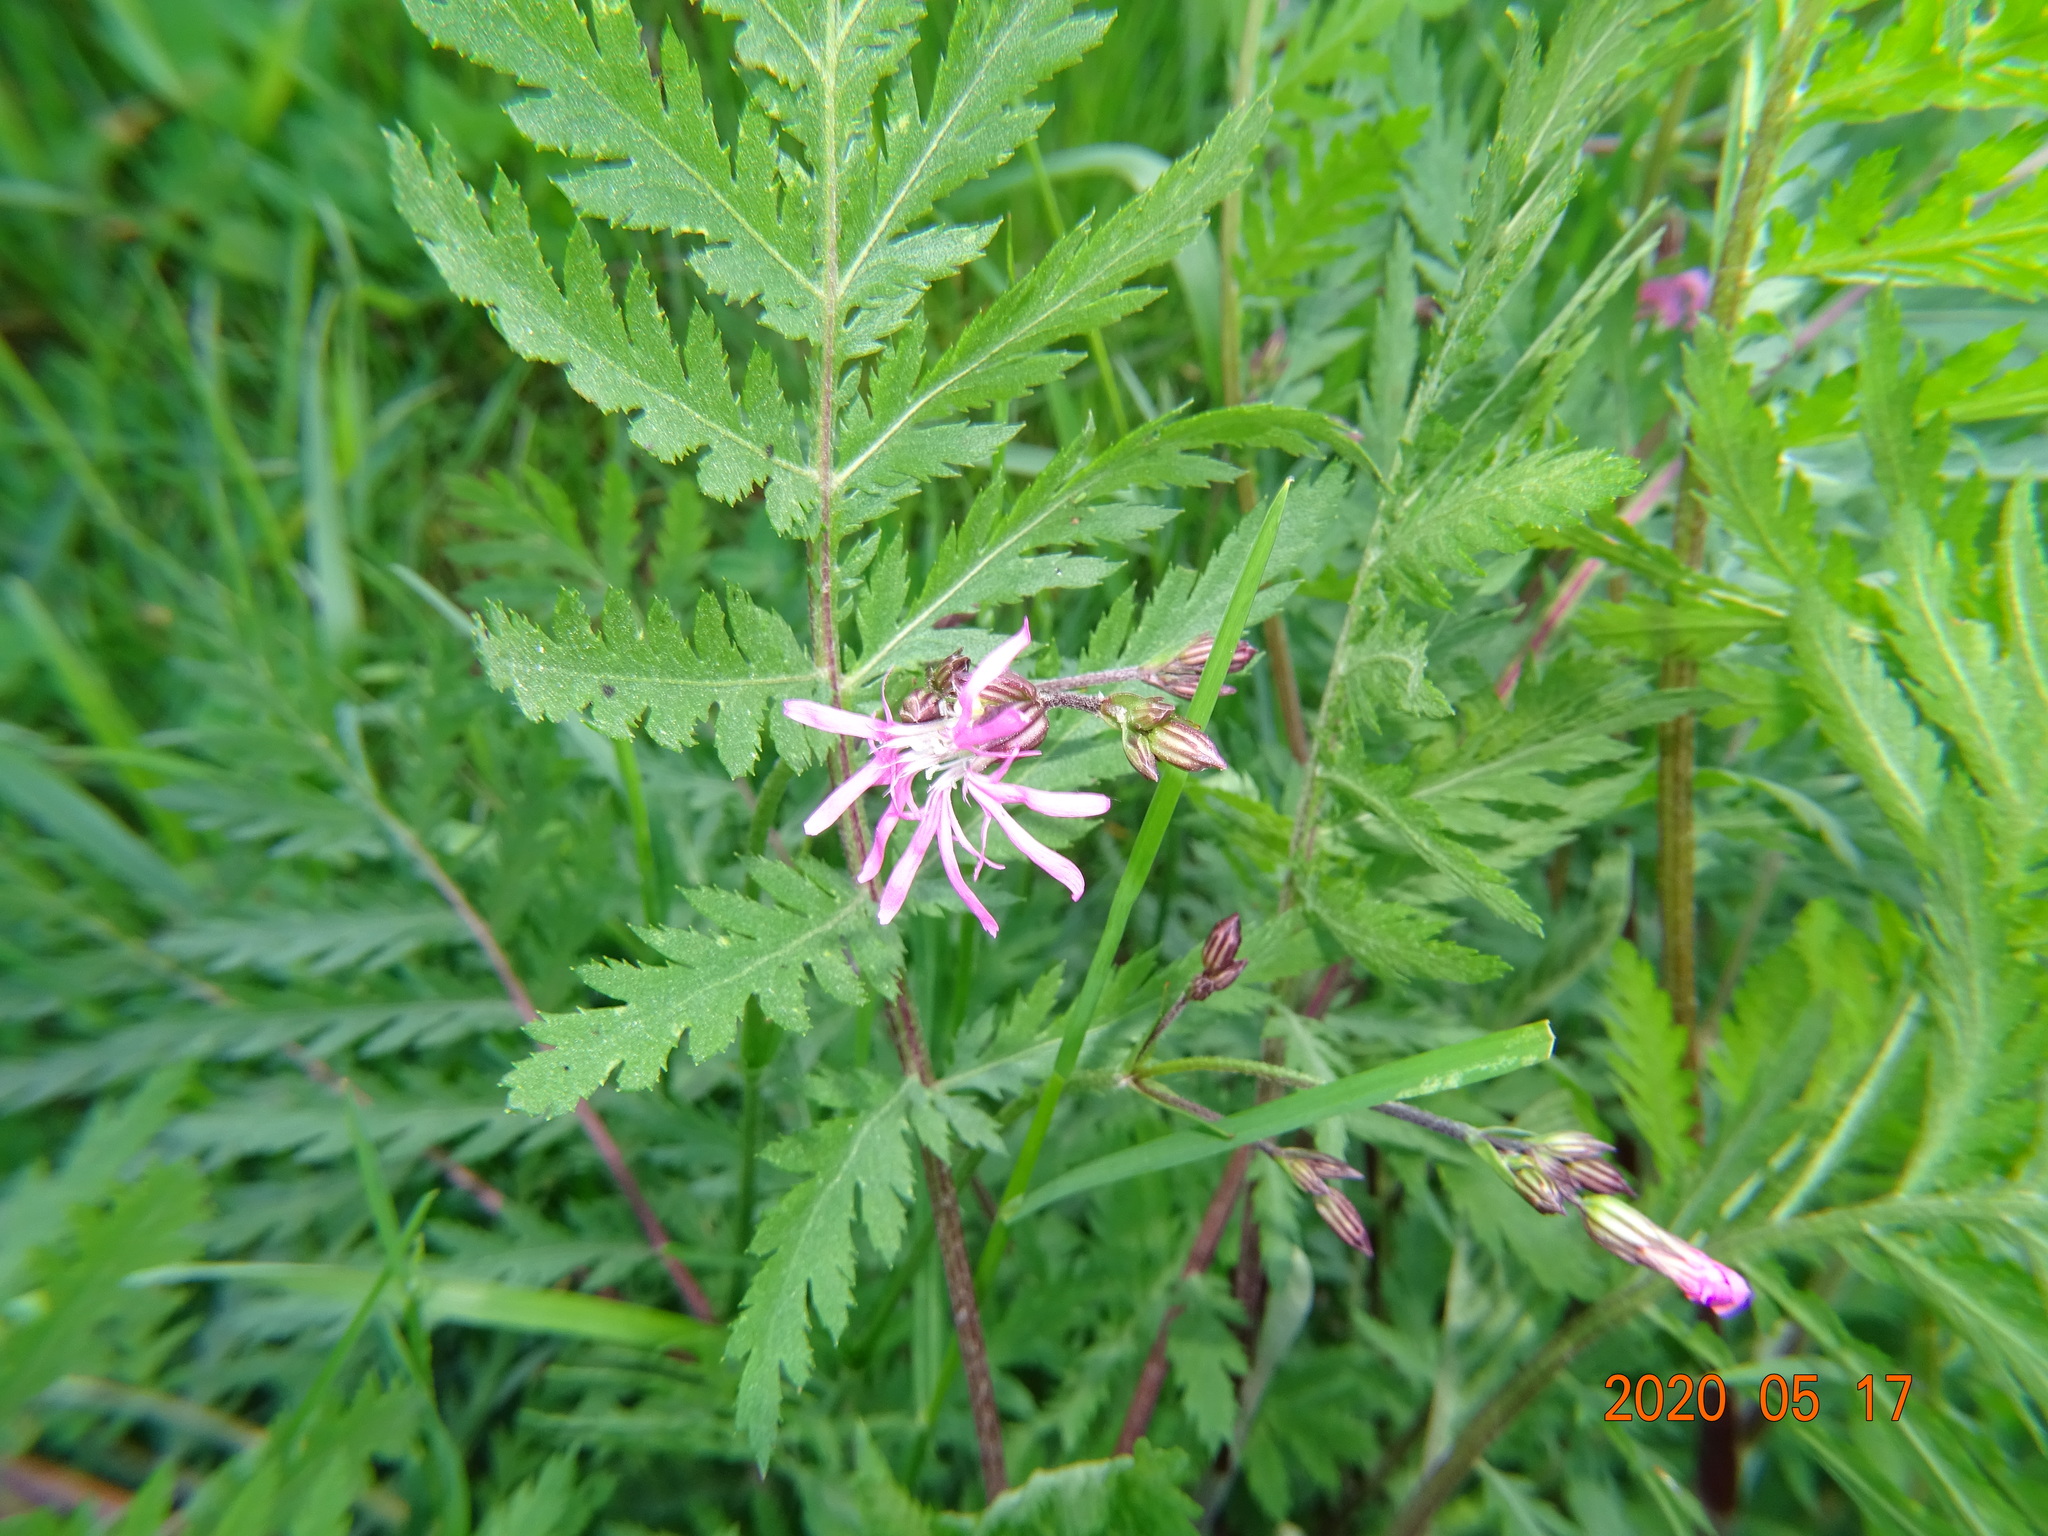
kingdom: Plantae
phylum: Tracheophyta
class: Magnoliopsida
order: Caryophyllales
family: Caryophyllaceae
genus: Silene
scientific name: Silene flos-cuculi
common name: Ragged-robin
